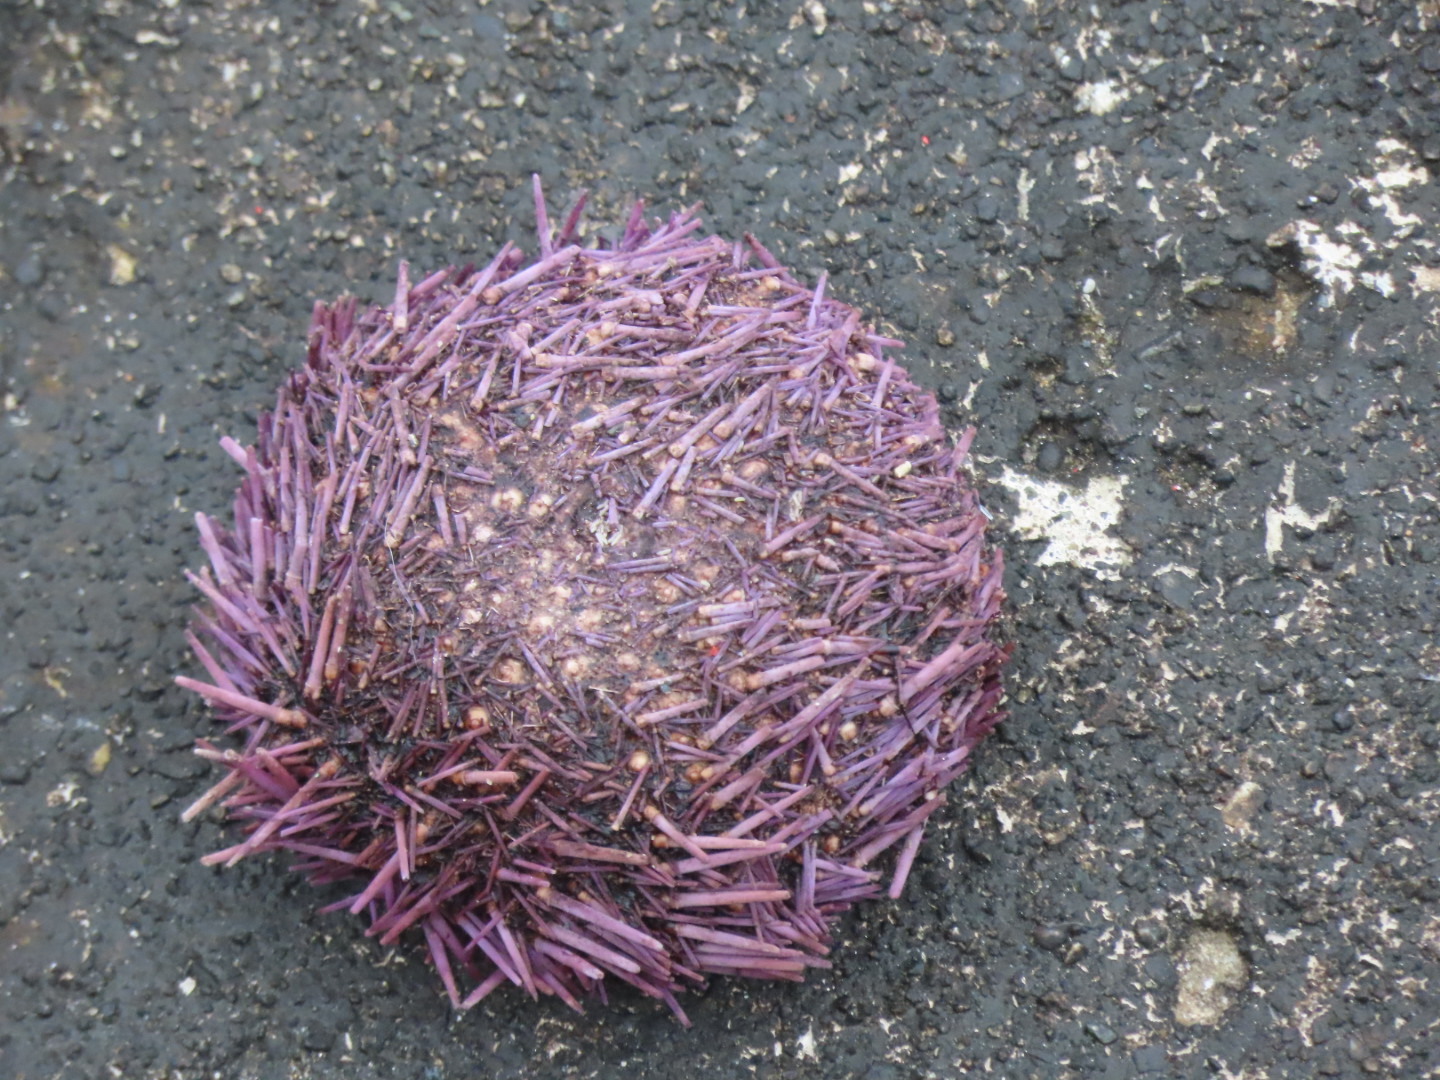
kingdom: Animalia
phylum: Echinodermata
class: Echinoidea
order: Camarodonta
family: Strongylocentrotidae
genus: Strongylocentrotus
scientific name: Strongylocentrotus purpuratus
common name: Purple sea urchin
